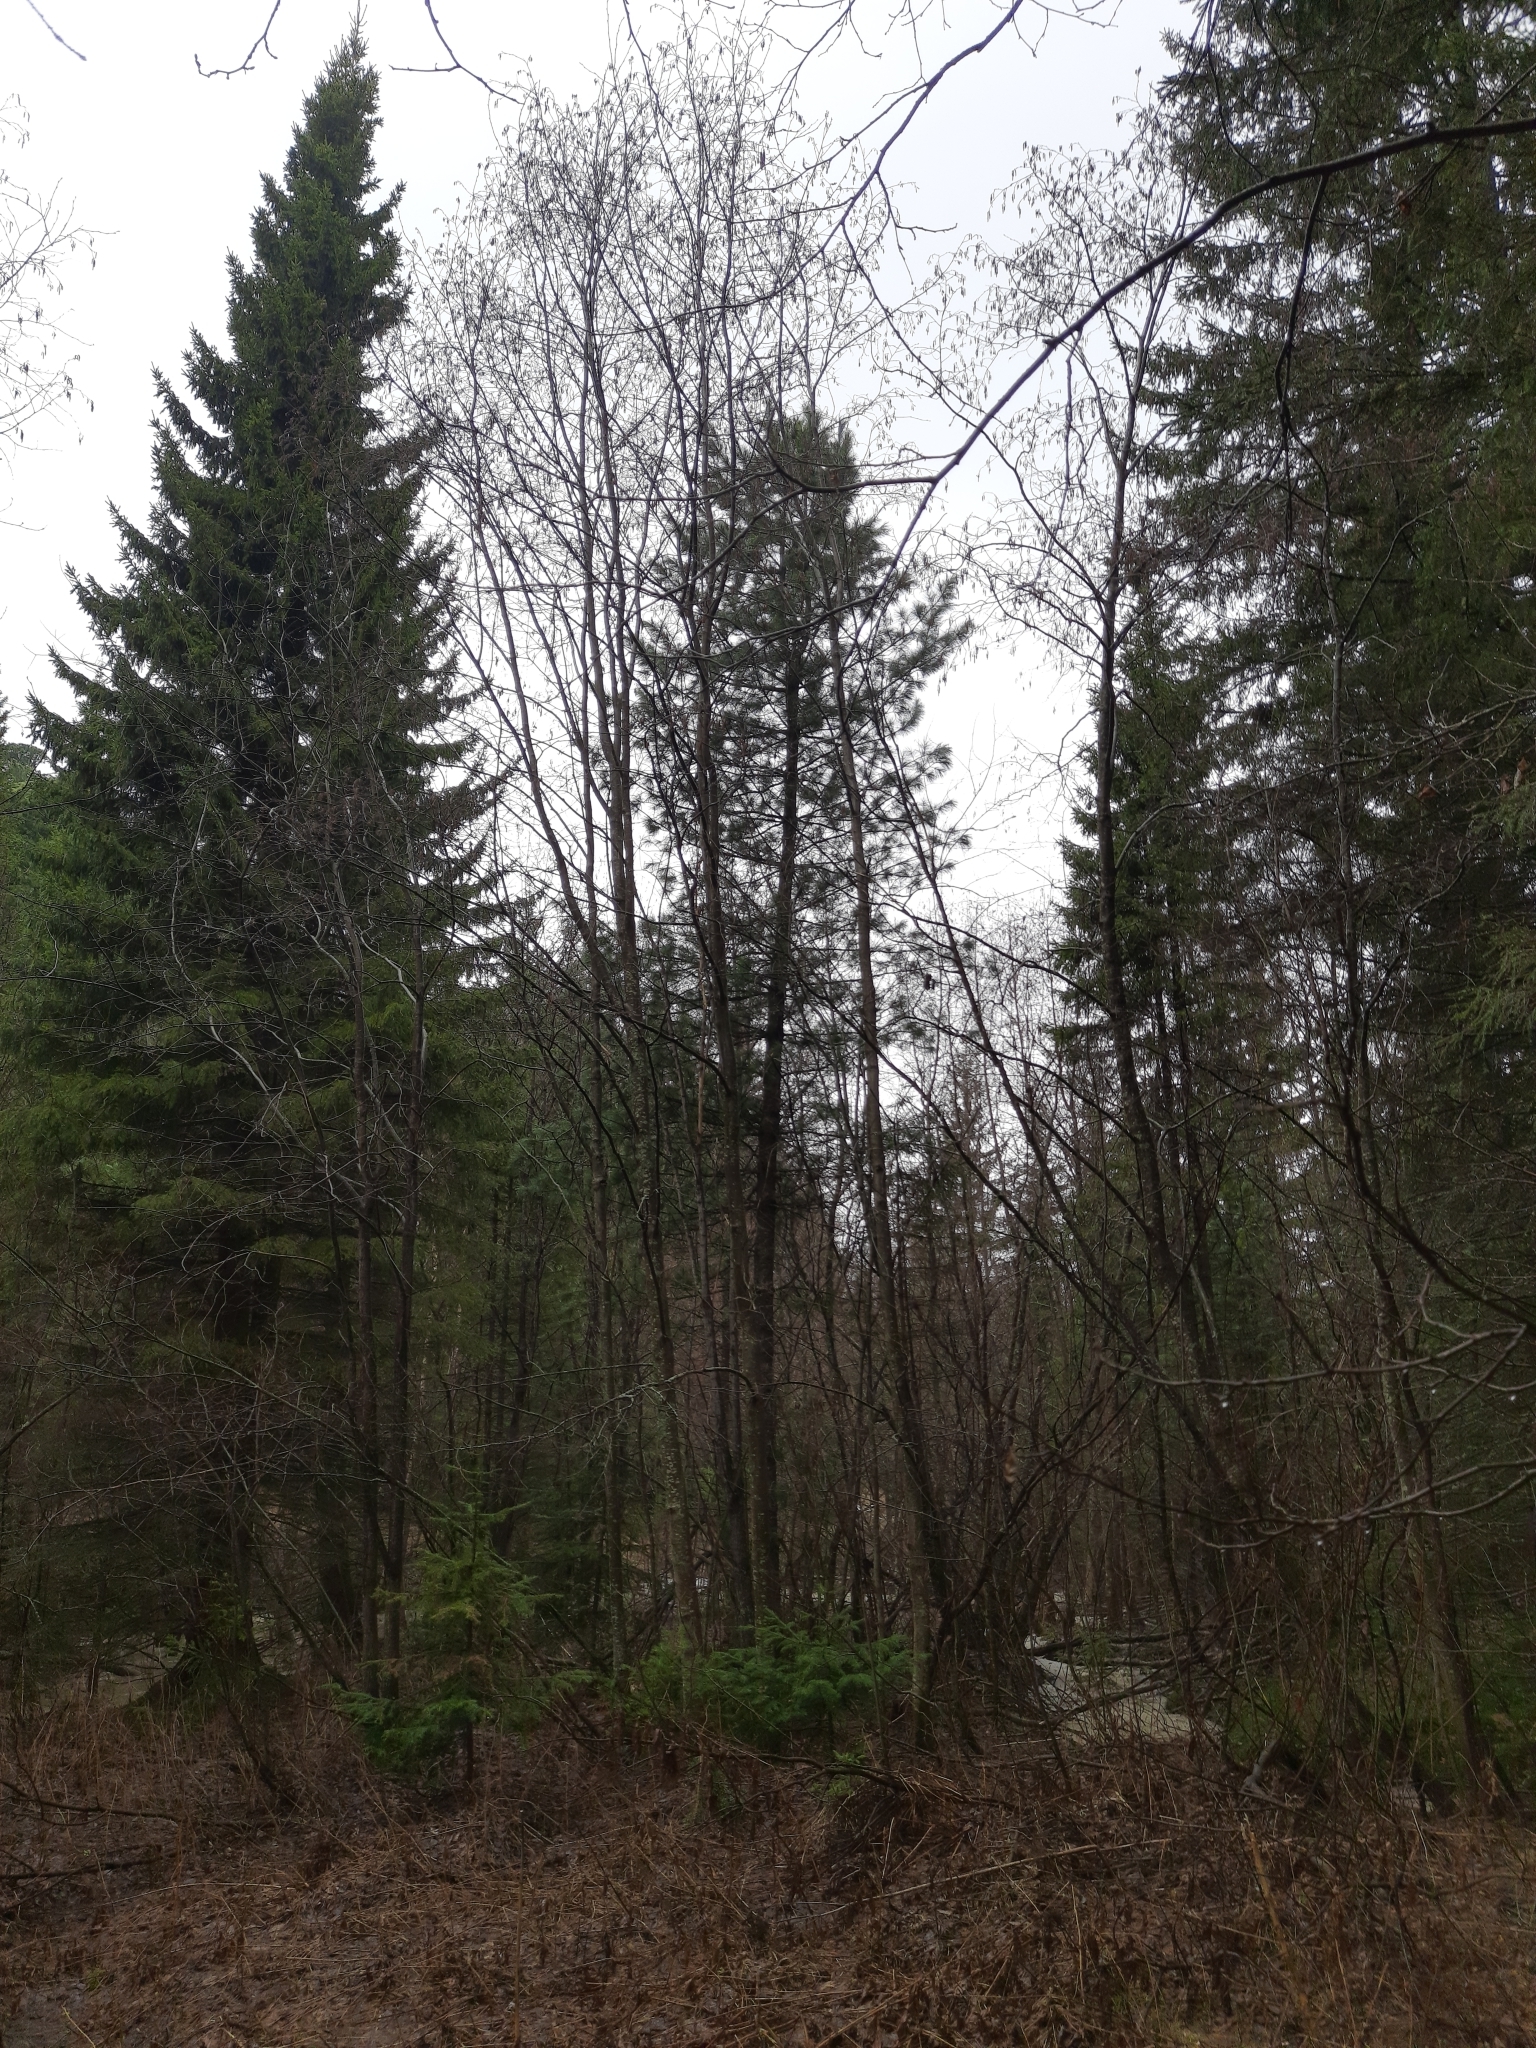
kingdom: Plantae
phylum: Tracheophyta
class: Magnoliopsida
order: Fagales
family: Betulaceae
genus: Alnus
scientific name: Alnus incana
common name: Grey alder
